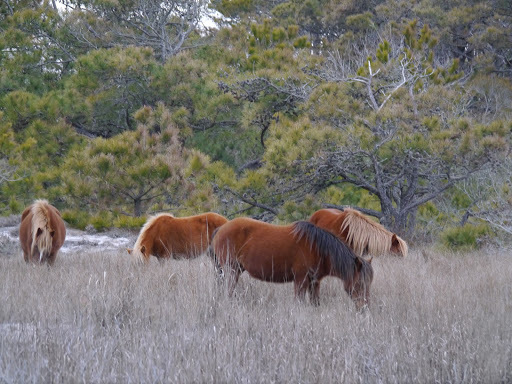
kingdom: Animalia
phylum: Chordata
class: Mammalia
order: Perissodactyla
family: Equidae
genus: Equus
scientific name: Equus caballus
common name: Horse
